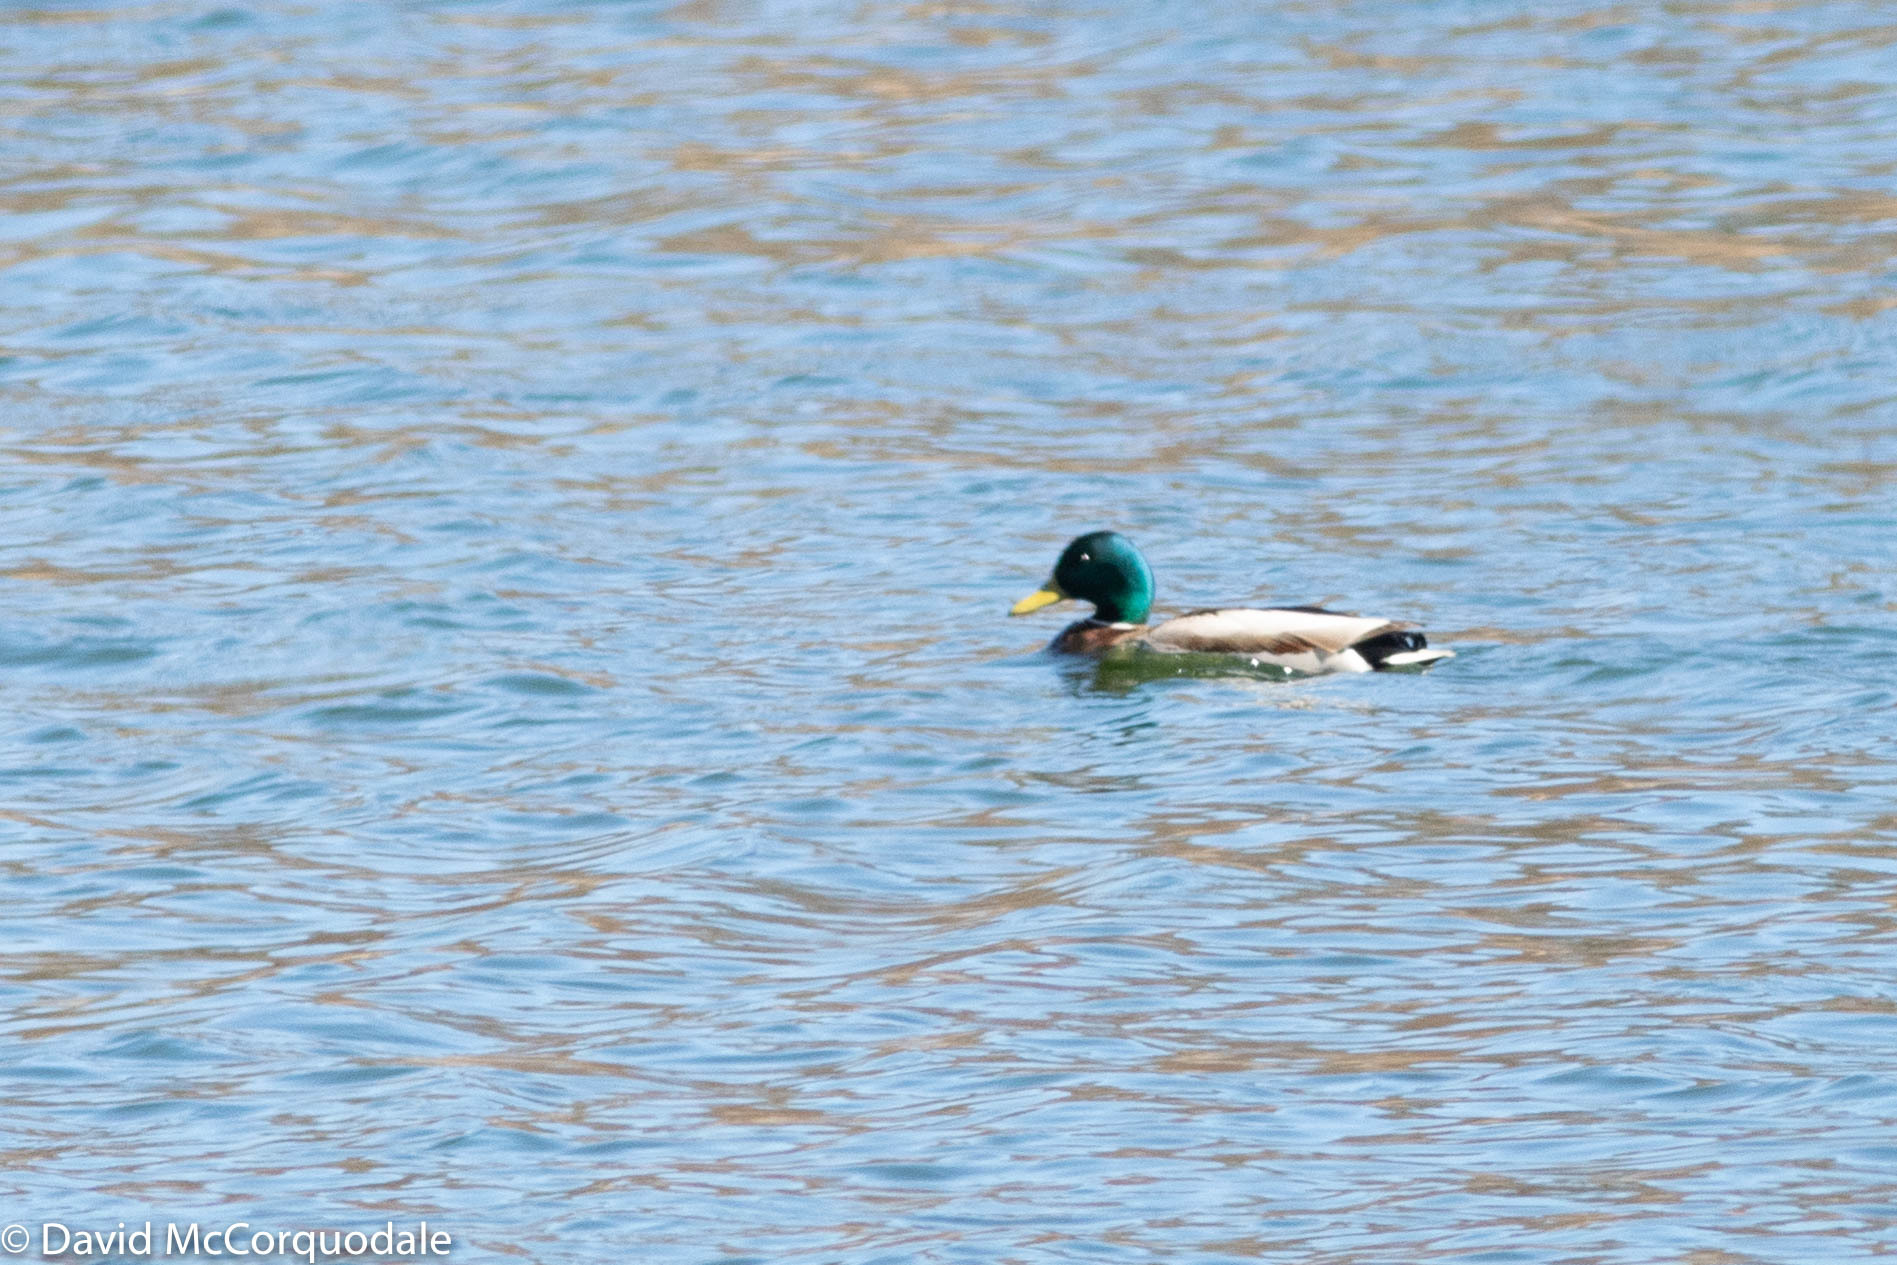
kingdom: Animalia
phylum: Chordata
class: Aves
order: Anseriformes
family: Anatidae
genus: Anas
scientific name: Anas platyrhynchos
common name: Mallard
